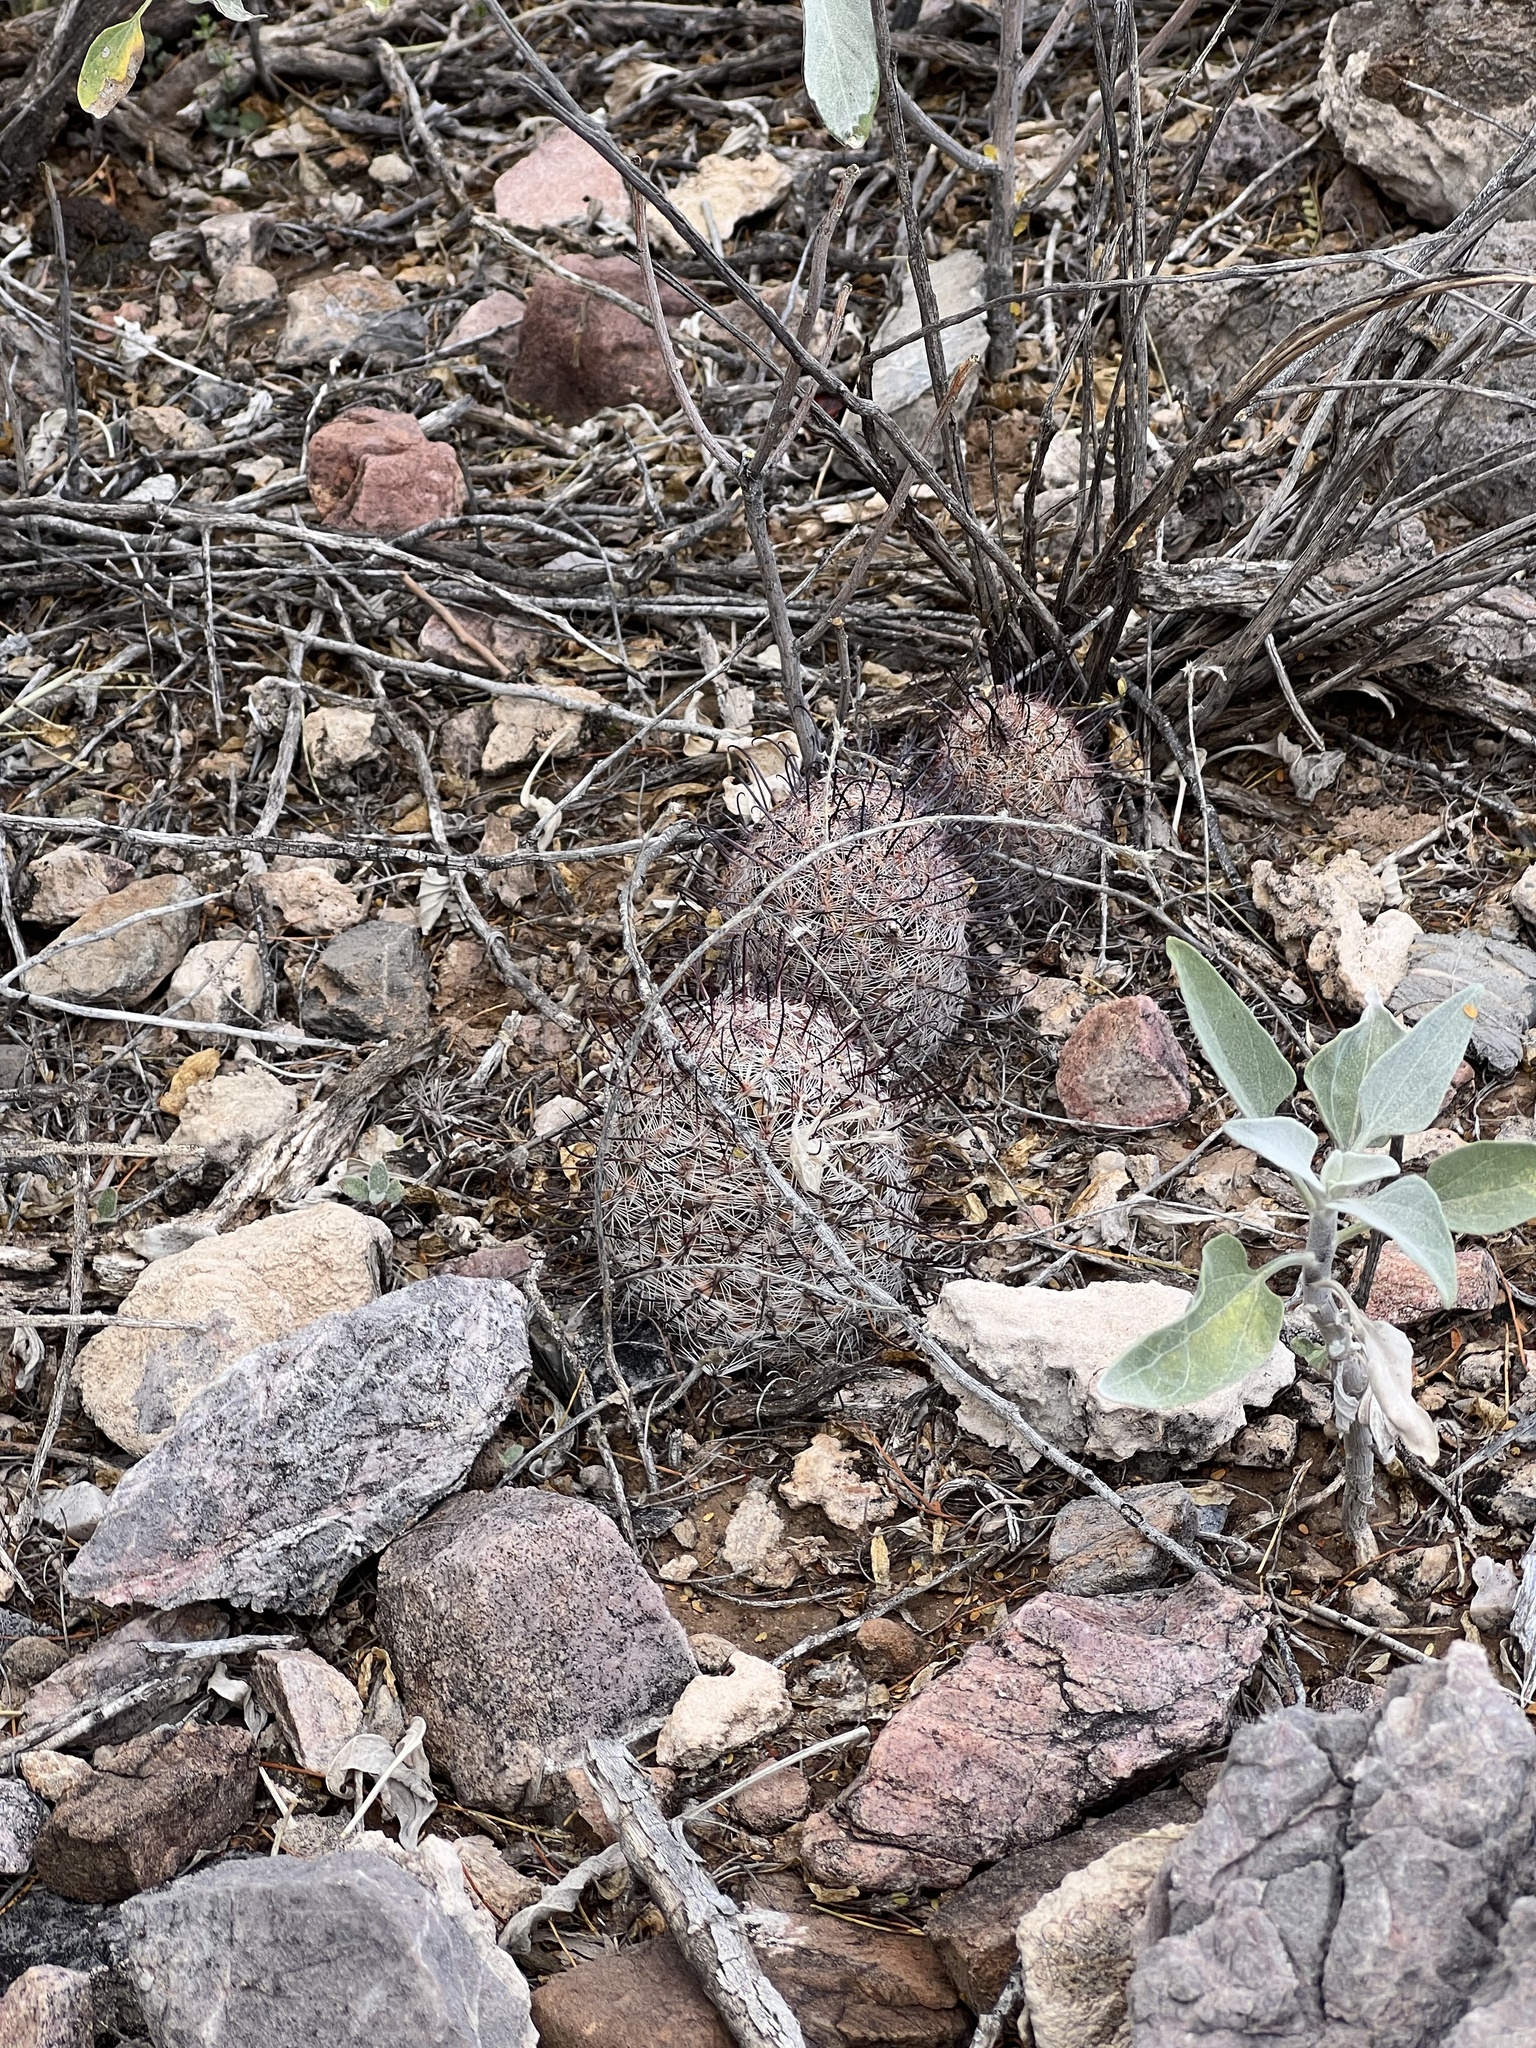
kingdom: Plantae
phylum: Tracheophyta
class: Magnoliopsida
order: Caryophyllales
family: Cactaceae
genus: Cochemiea
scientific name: Cochemiea grahamii
